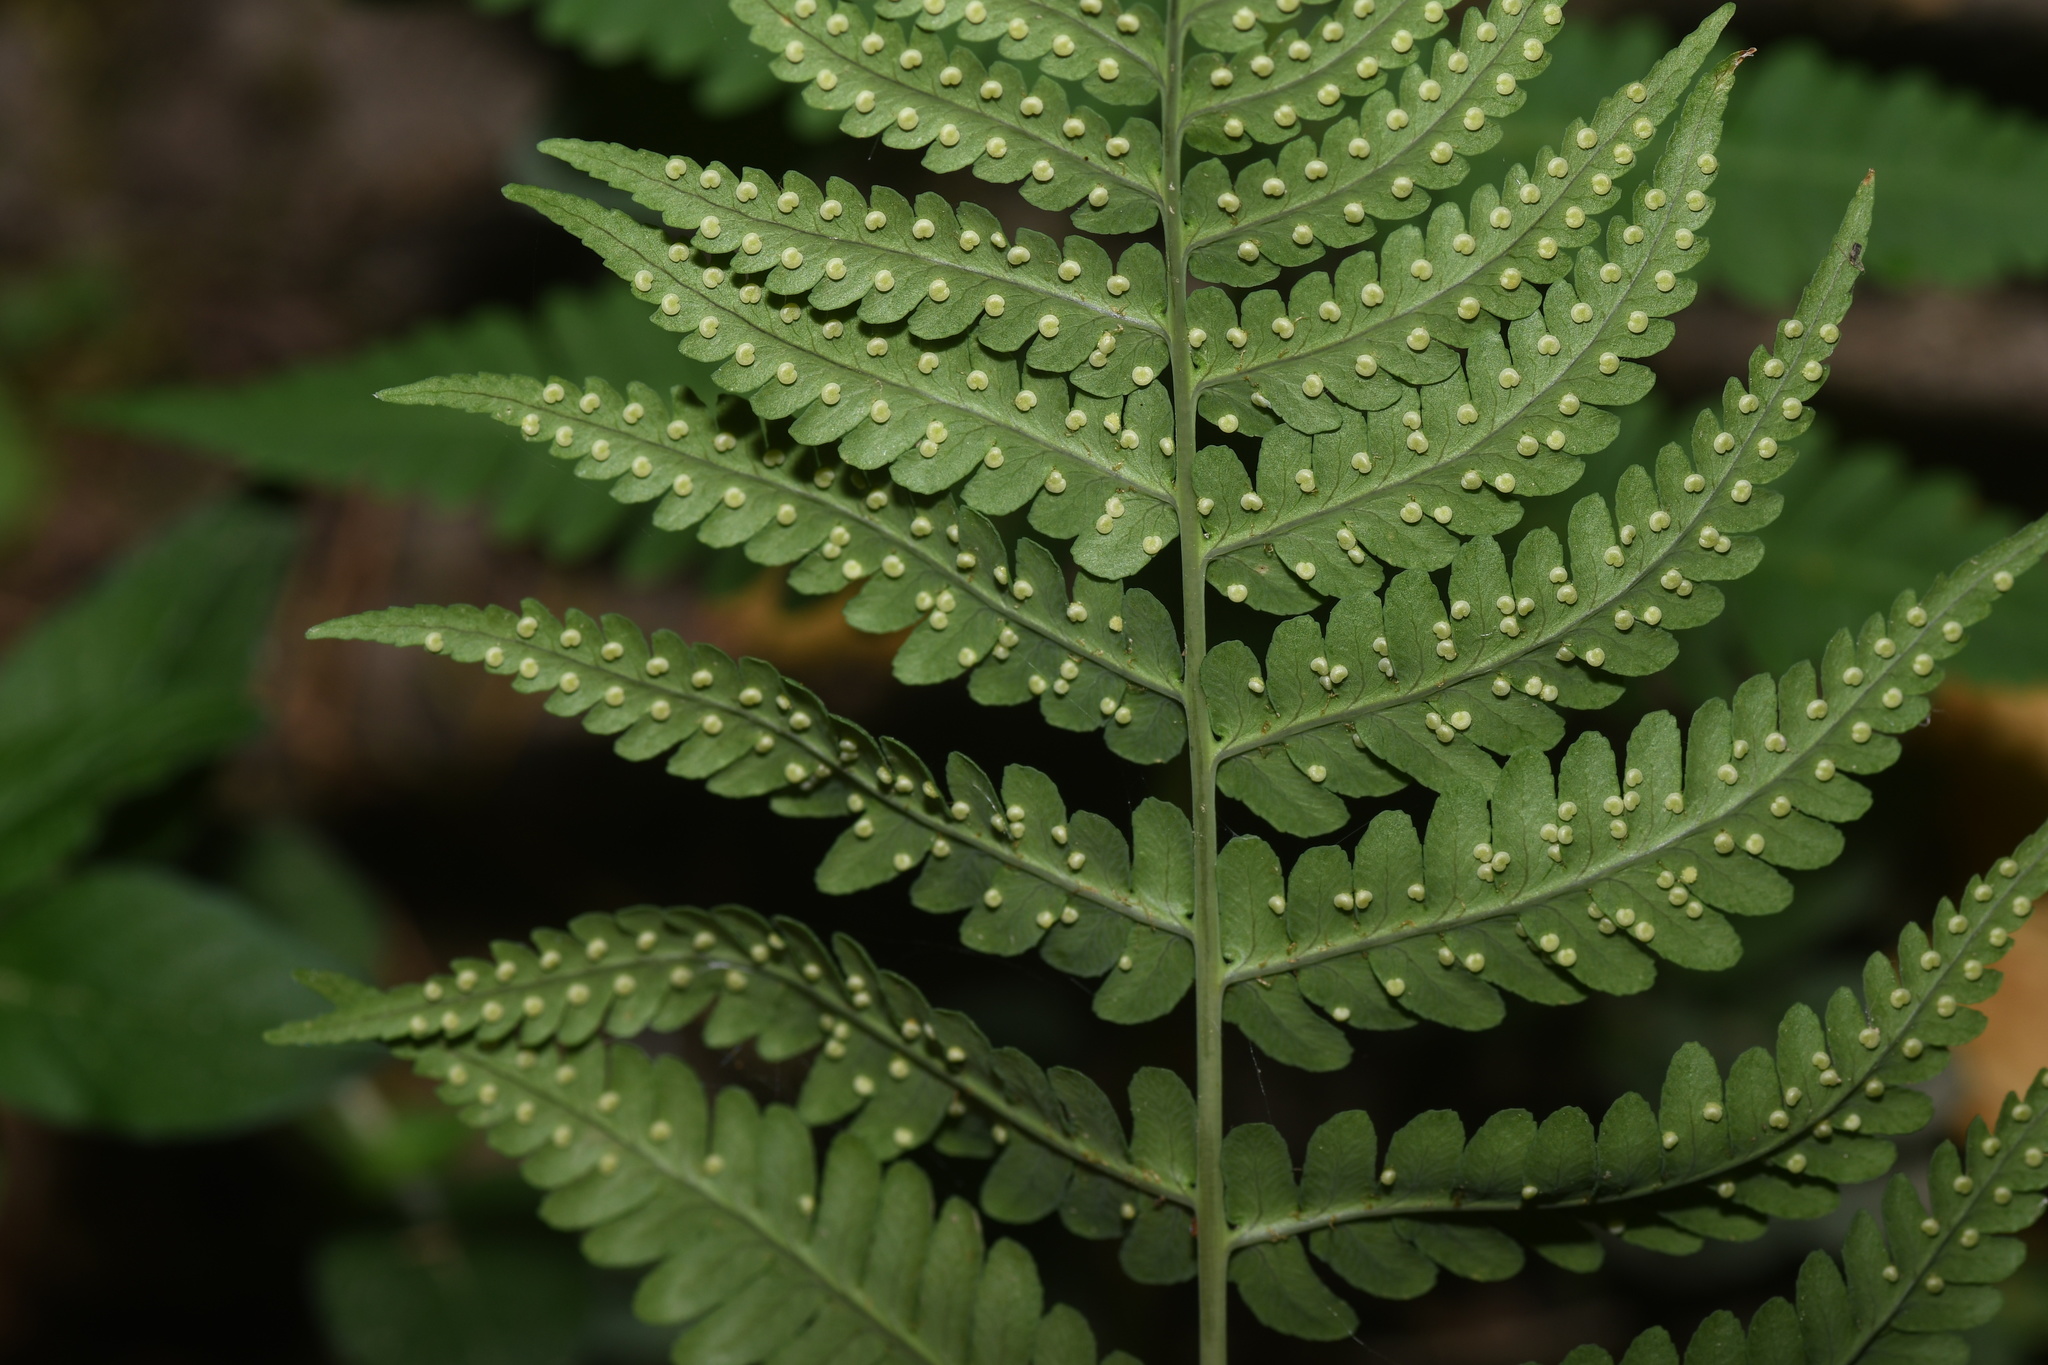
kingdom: Plantae
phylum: Tracheophyta
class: Polypodiopsida
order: Polypodiales
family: Dryopteridaceae
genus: Dryopteris
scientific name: Dryopteris marginalis
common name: Marginal wood fern
